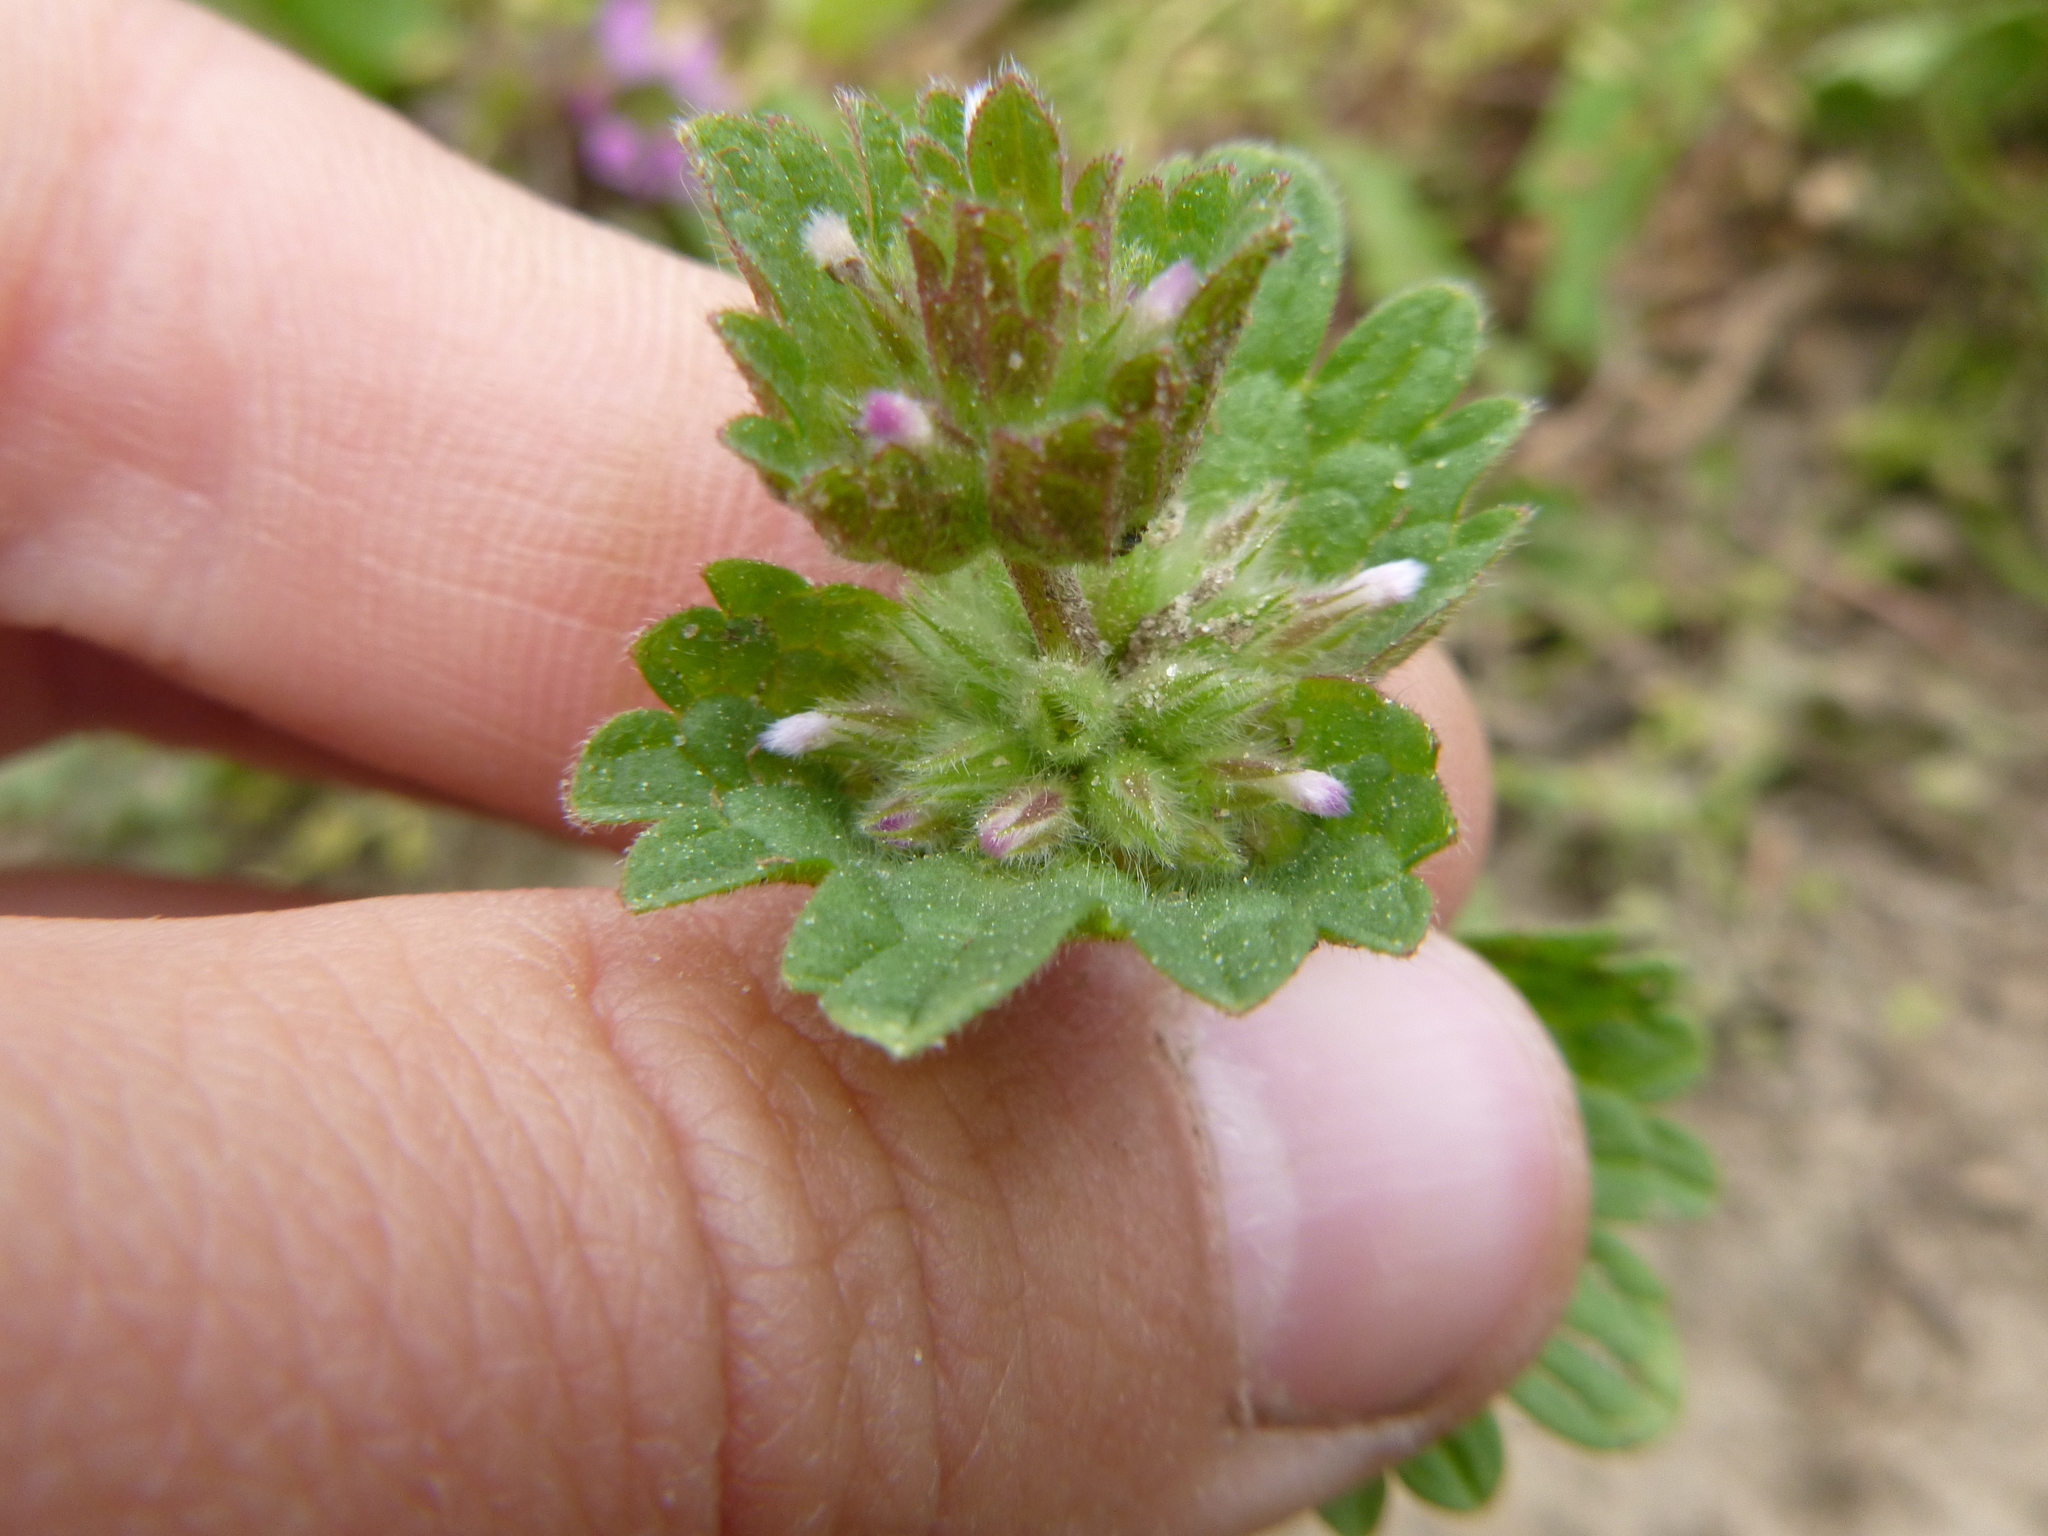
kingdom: Plantae
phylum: Tracheophyta
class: Magnoliopsida
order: Lamiales
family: Lamiaceae
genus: Lamium
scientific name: Lamium amplexicaule
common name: Henbit dead-nettle
